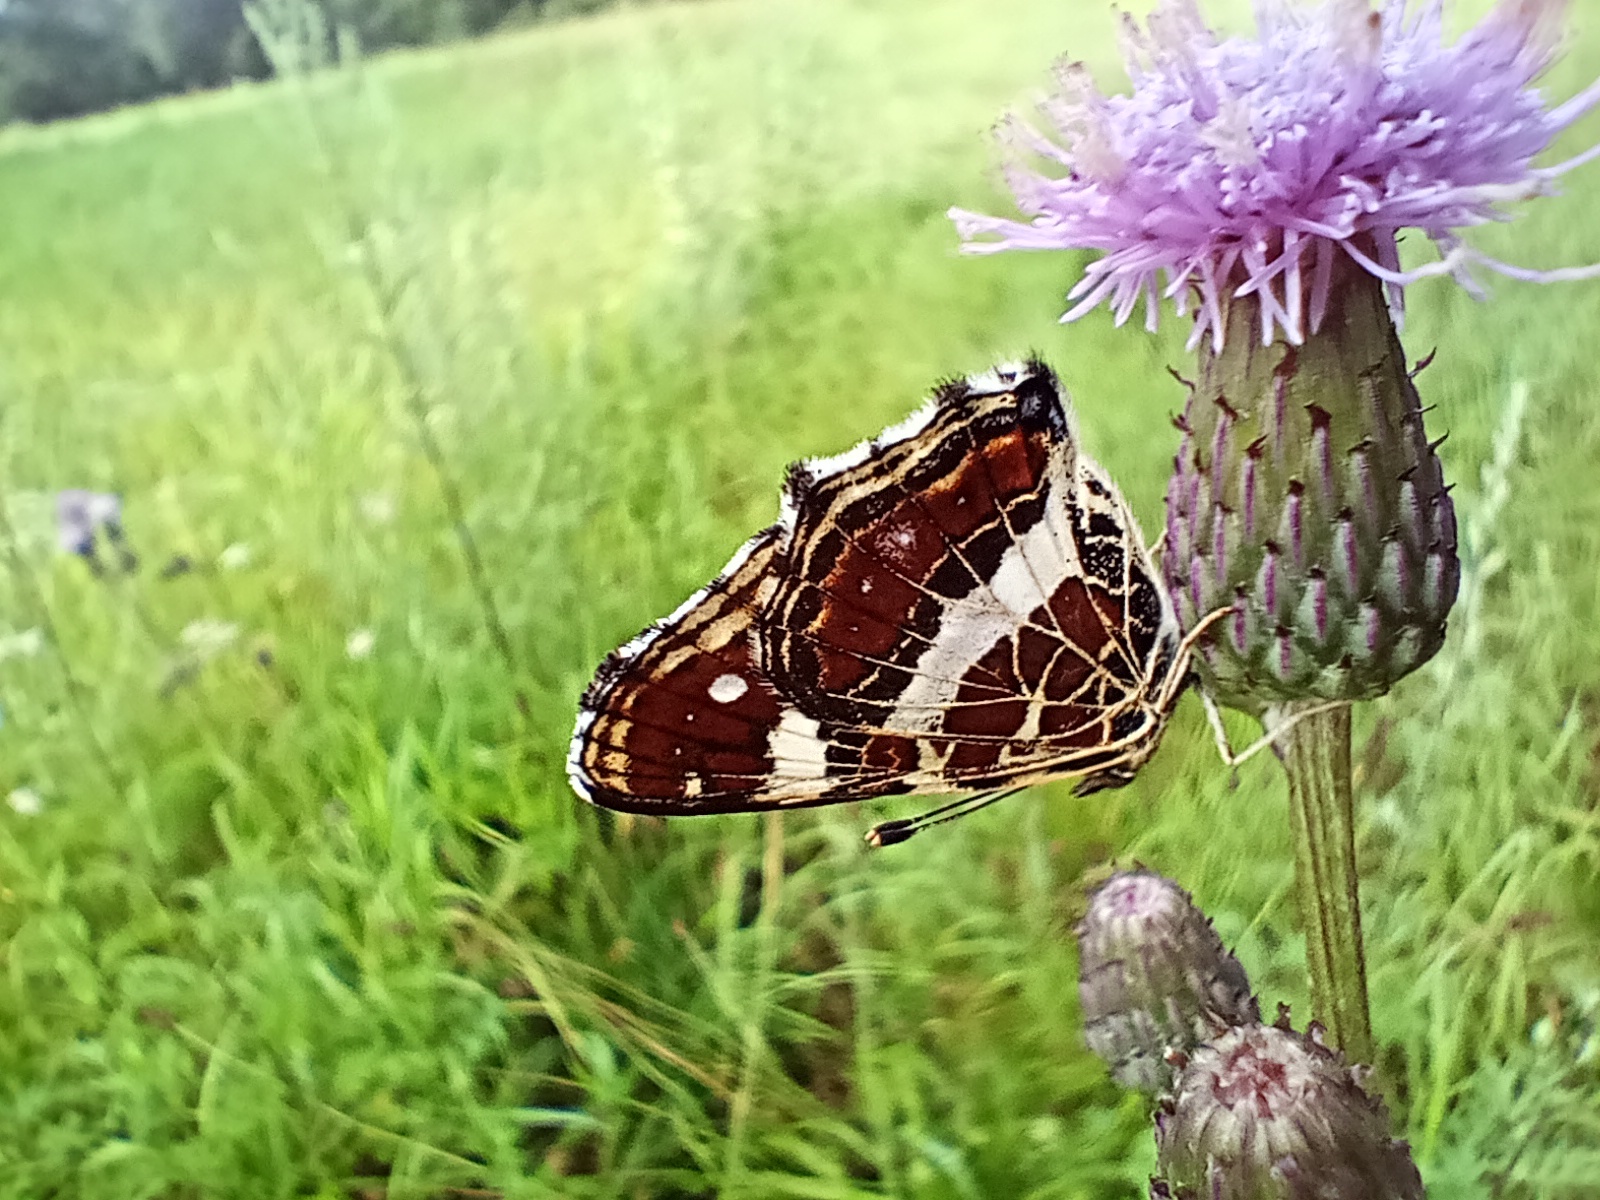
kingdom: Animalia
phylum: Arthropoda
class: Insecta
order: Lepidoptera
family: Nymphalidae
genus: Araschnia
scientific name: Araschnia levana
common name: Map butterfly
